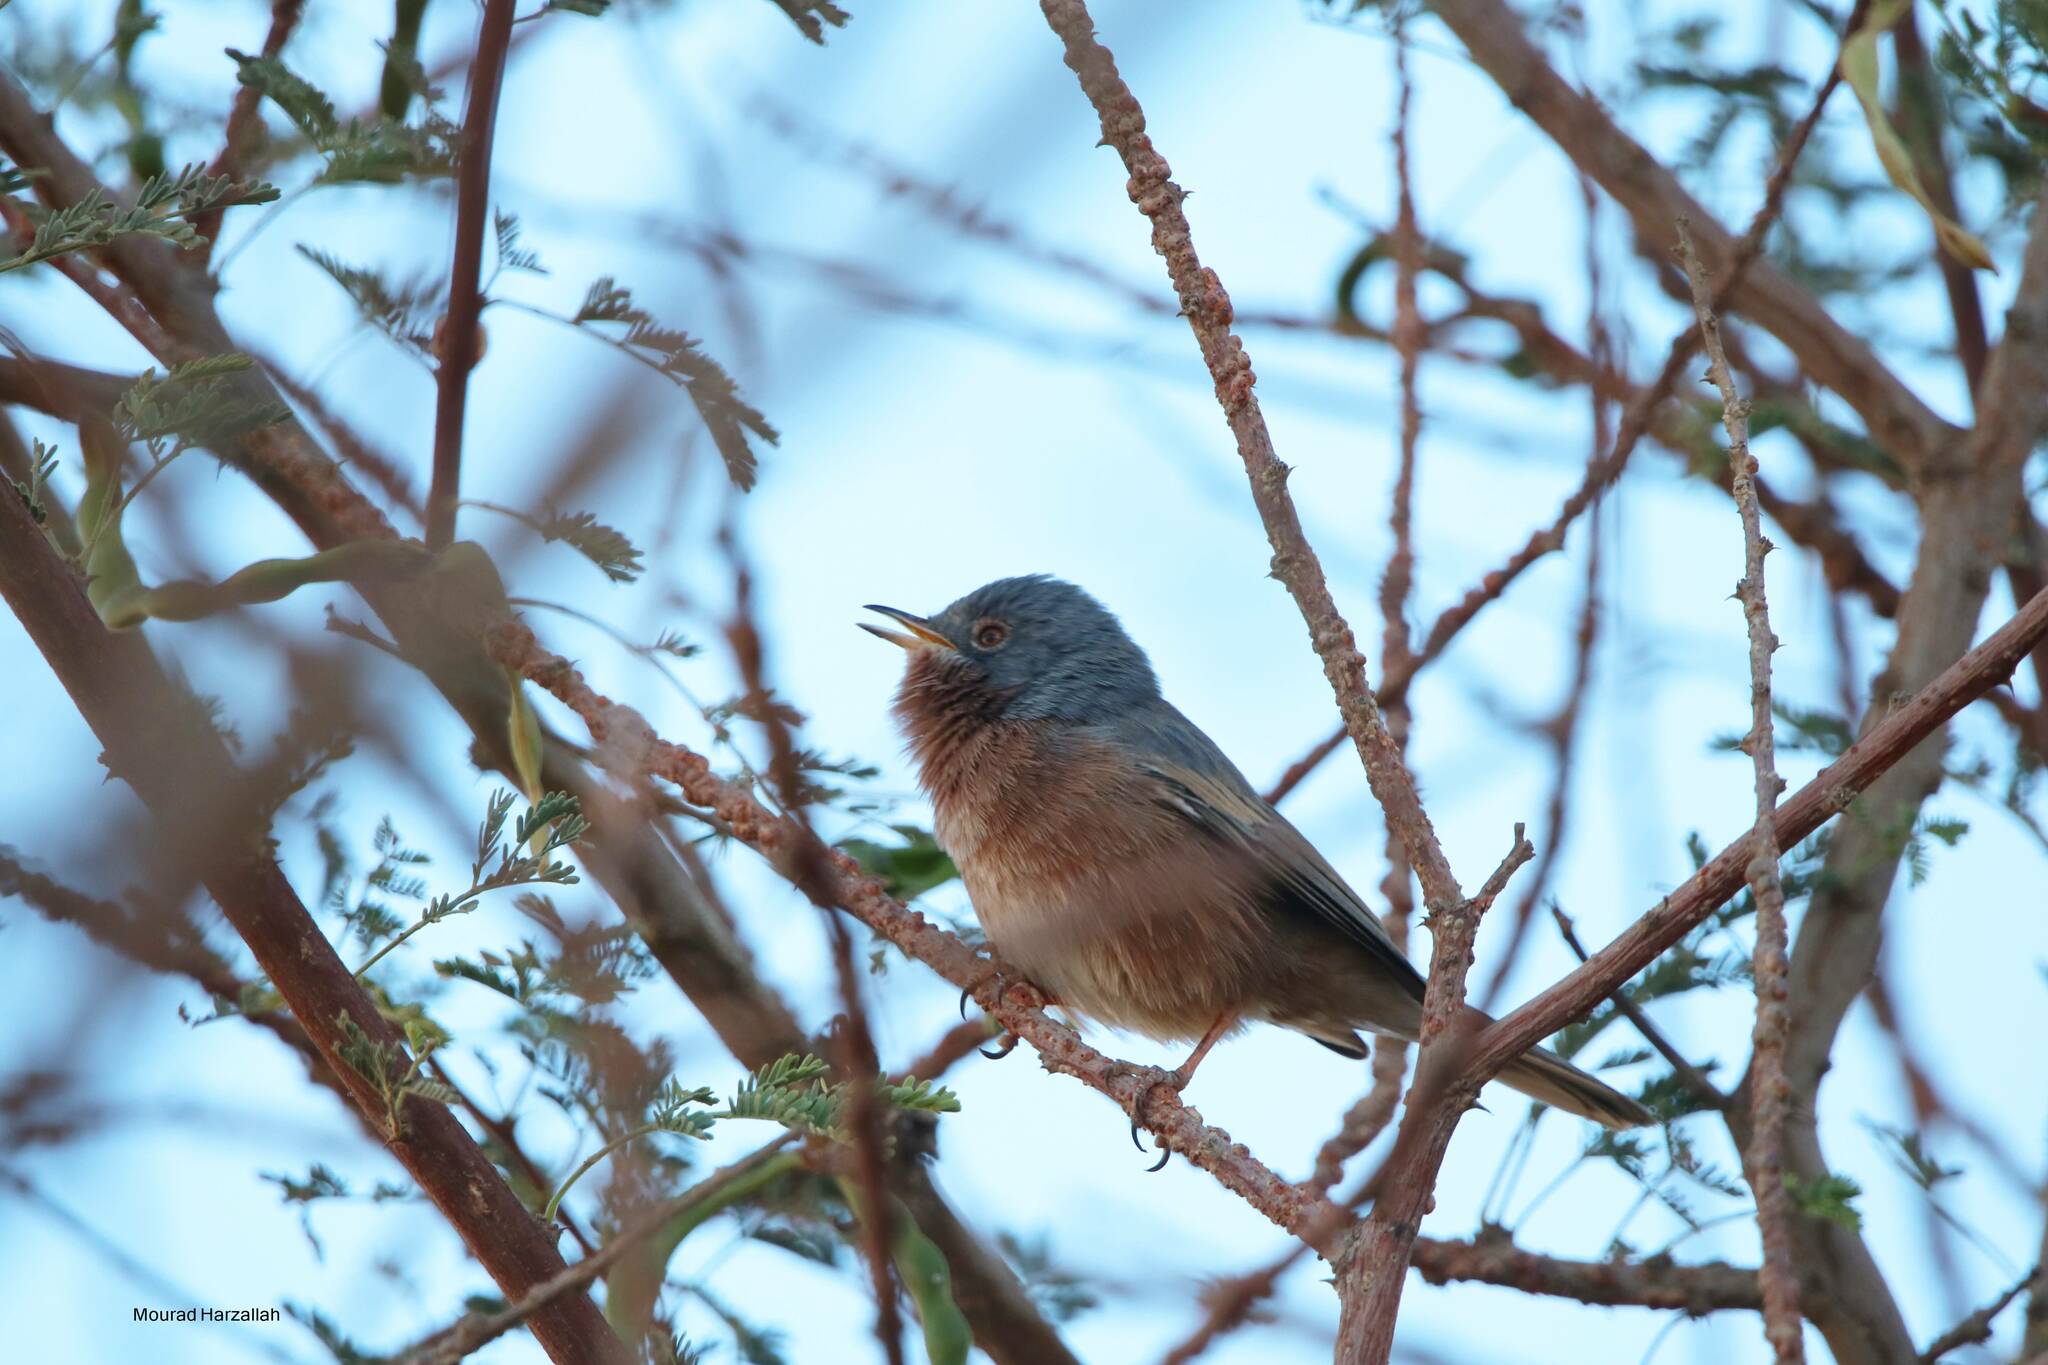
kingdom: Animalia
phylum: Chordata
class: Aves
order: Passeriformes
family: Sylviidae
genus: Sylvia
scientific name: Sylvia deserticola
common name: Tristram's warbler
